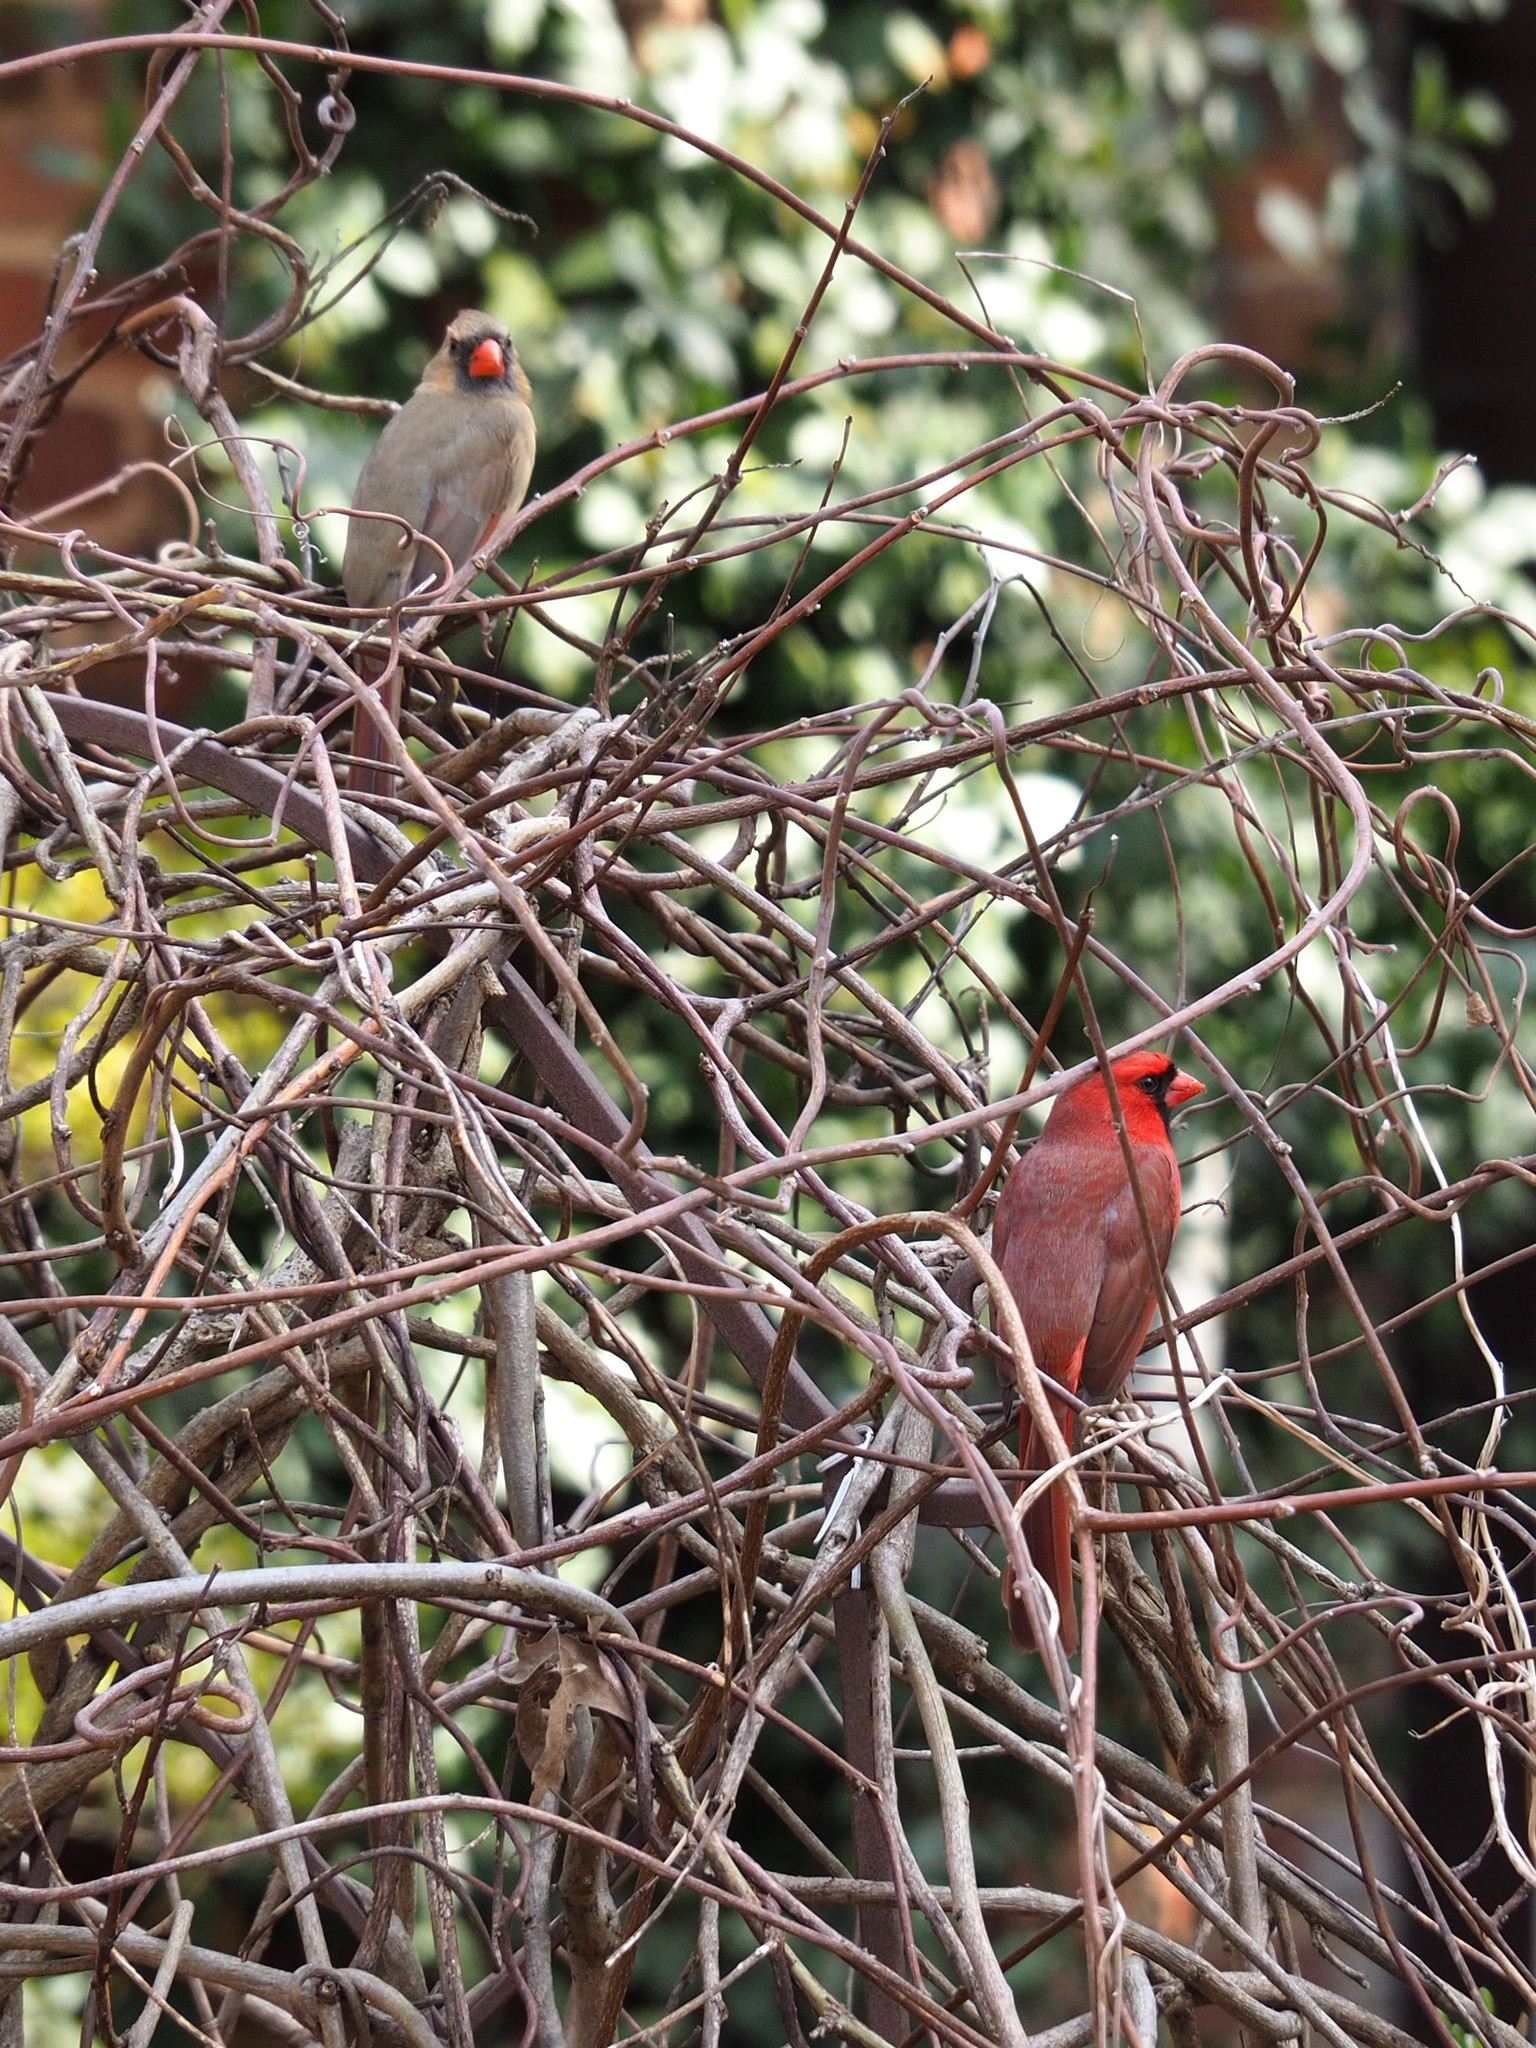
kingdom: Animalia
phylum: Chordata
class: Aves
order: Passeriformes
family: Cardinalidae
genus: Cardinalis
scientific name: Cardinalis cardinalis
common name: Northern cardinal
